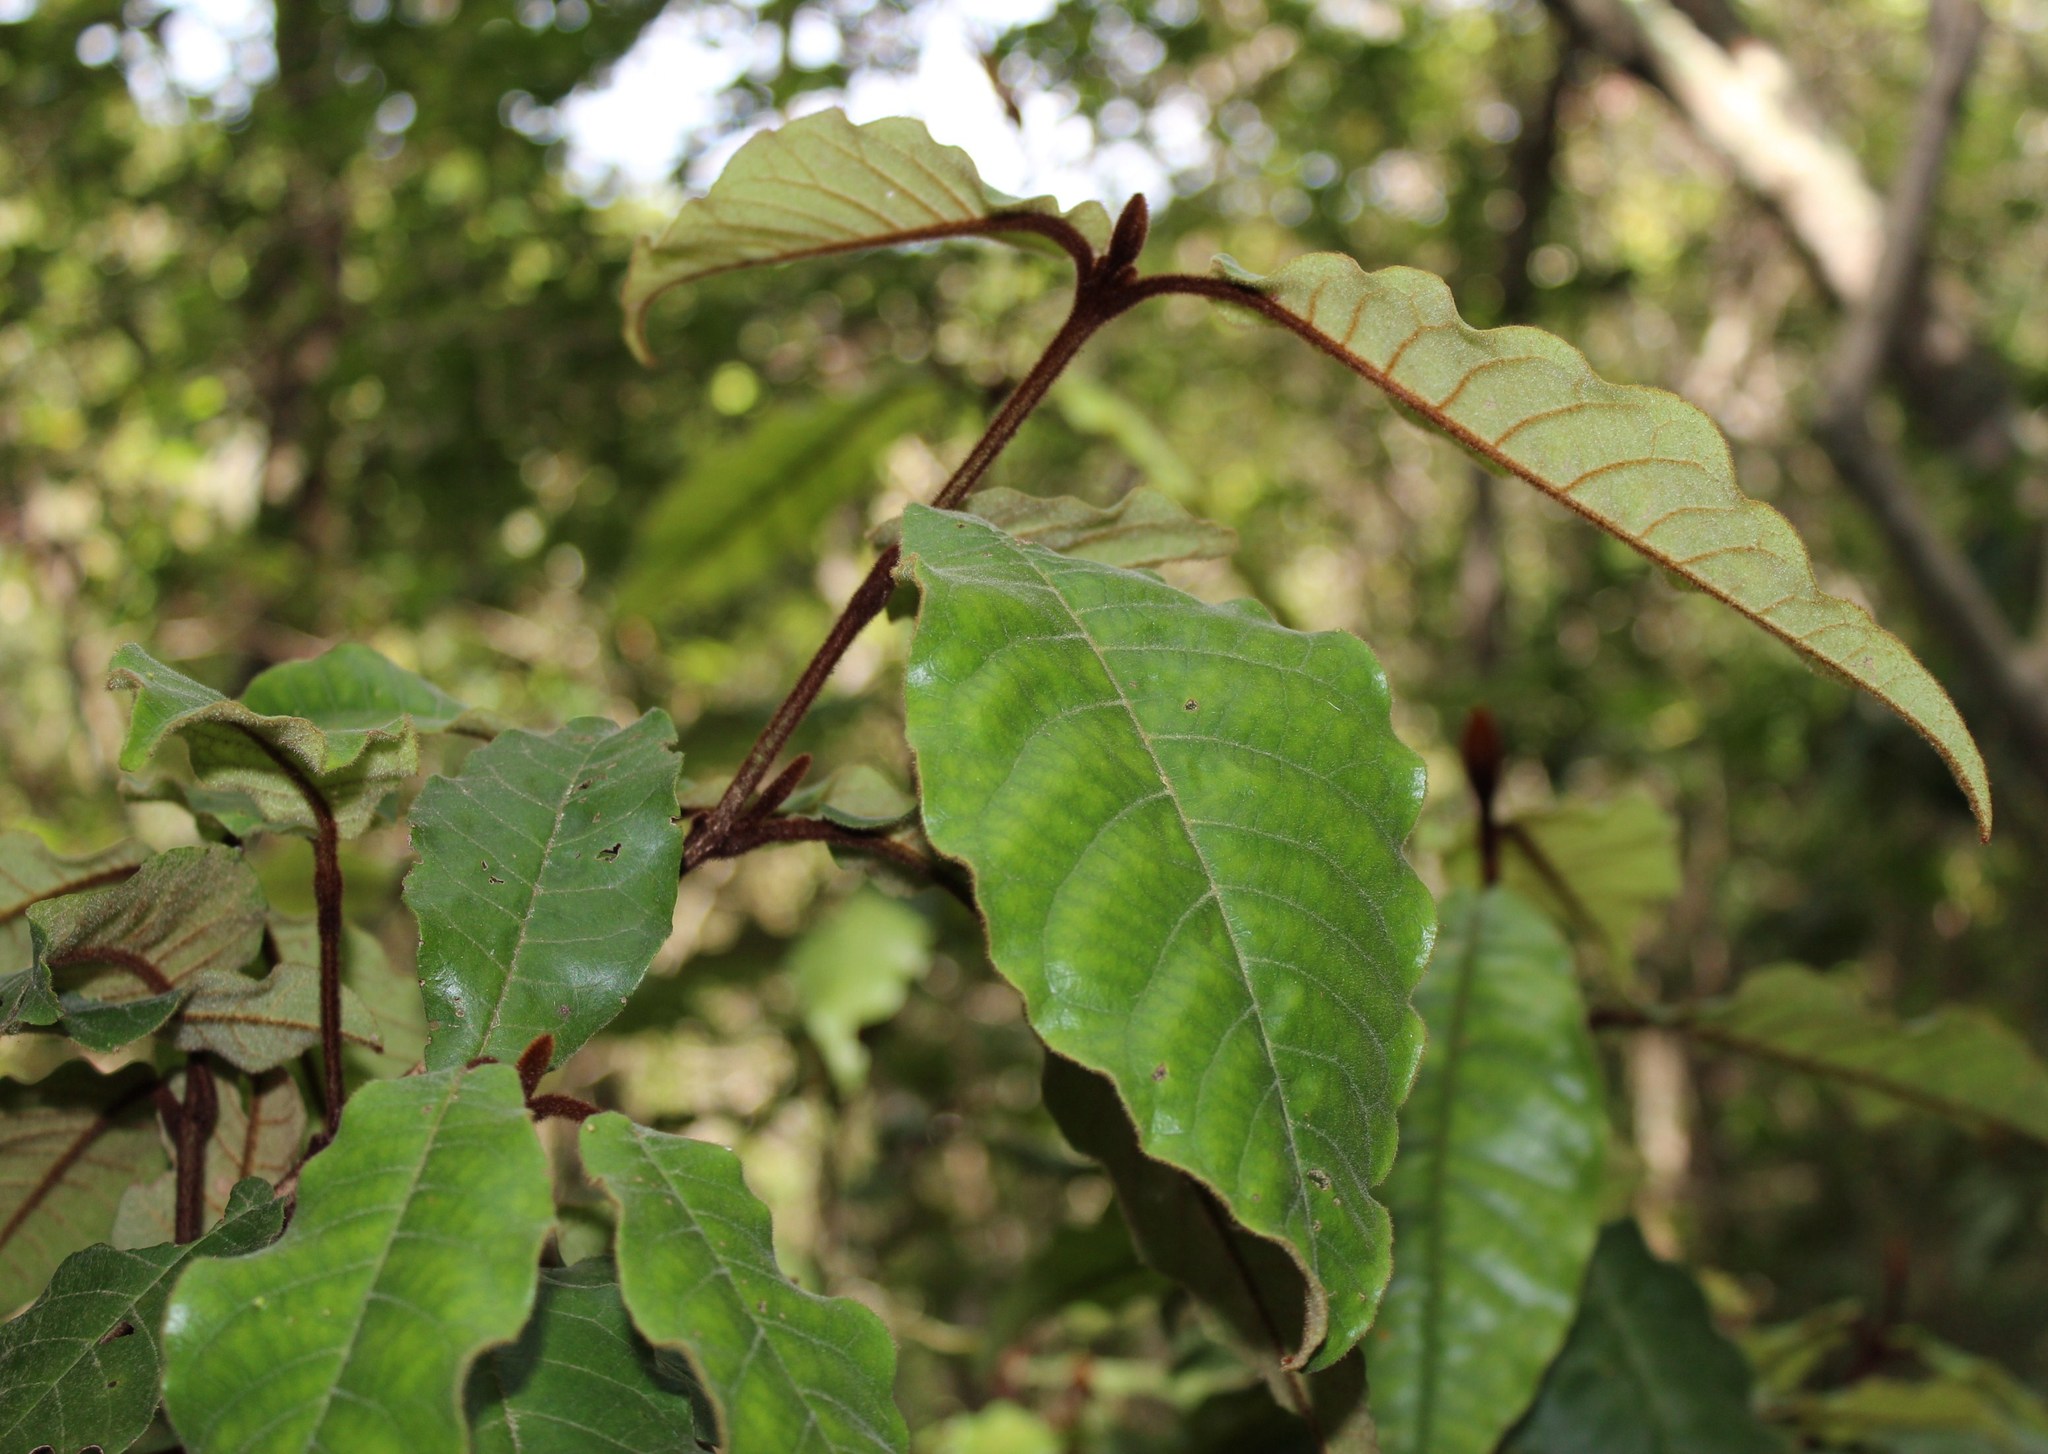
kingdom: Plantae
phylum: Tracheophyta
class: Magnoliopsida
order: Saxifragales
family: Hamamelidaceae
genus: Trichocladus
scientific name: Trichocladus crinitus
